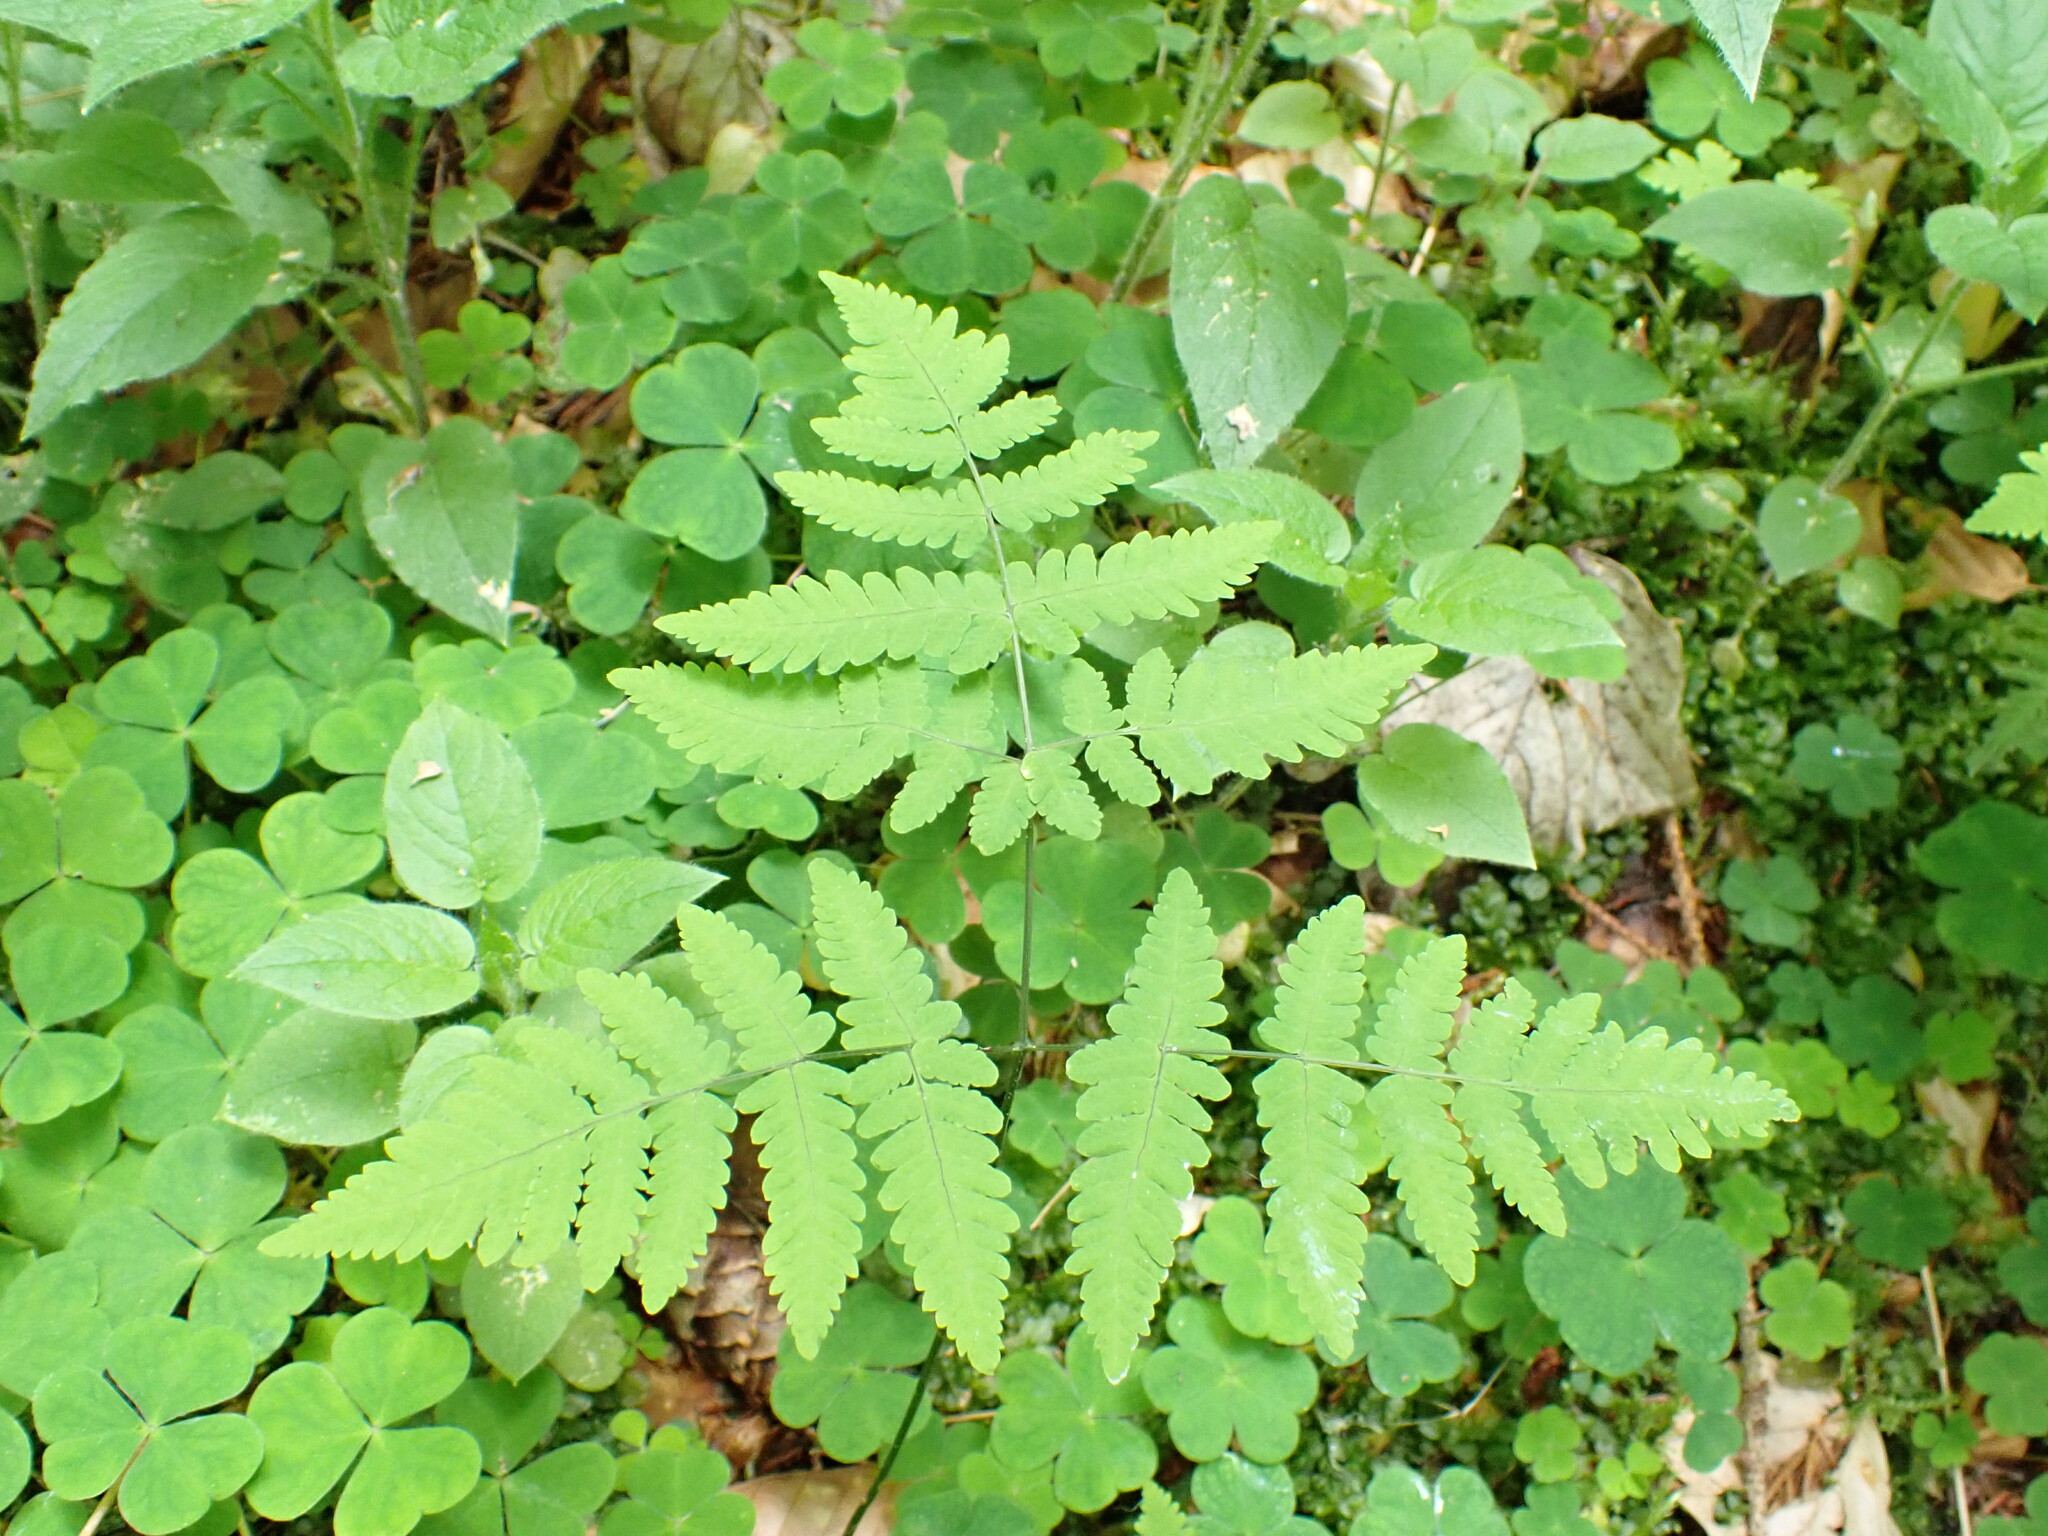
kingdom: Plantae
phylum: Tracheophyta
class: Polypodiopsida
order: Polypodiales
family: Cystopteridaceae
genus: Gymnocarpium
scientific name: Gymnocarpium dryopteris
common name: Oak fern
